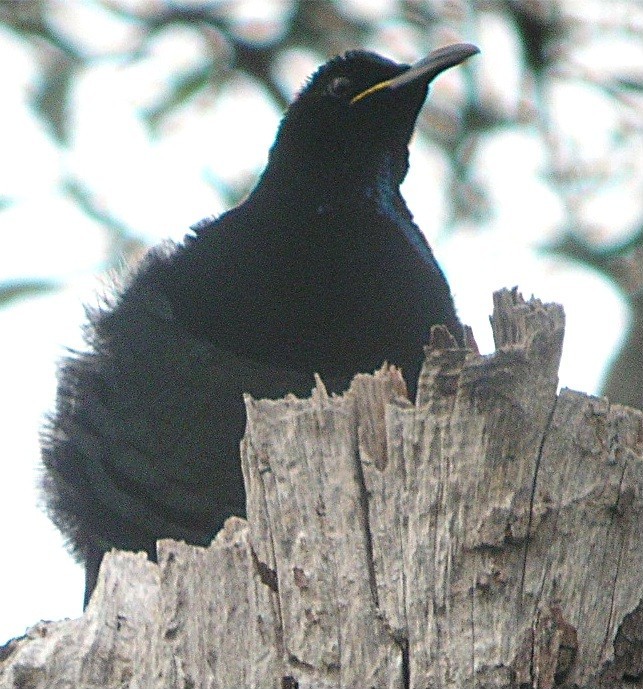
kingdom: Animalia
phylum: Chordata
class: Aves
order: Passeriformes
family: Paradisaeidae
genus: Ptiloris
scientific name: Ptiloris victoriae
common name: Victoria's riflebird
